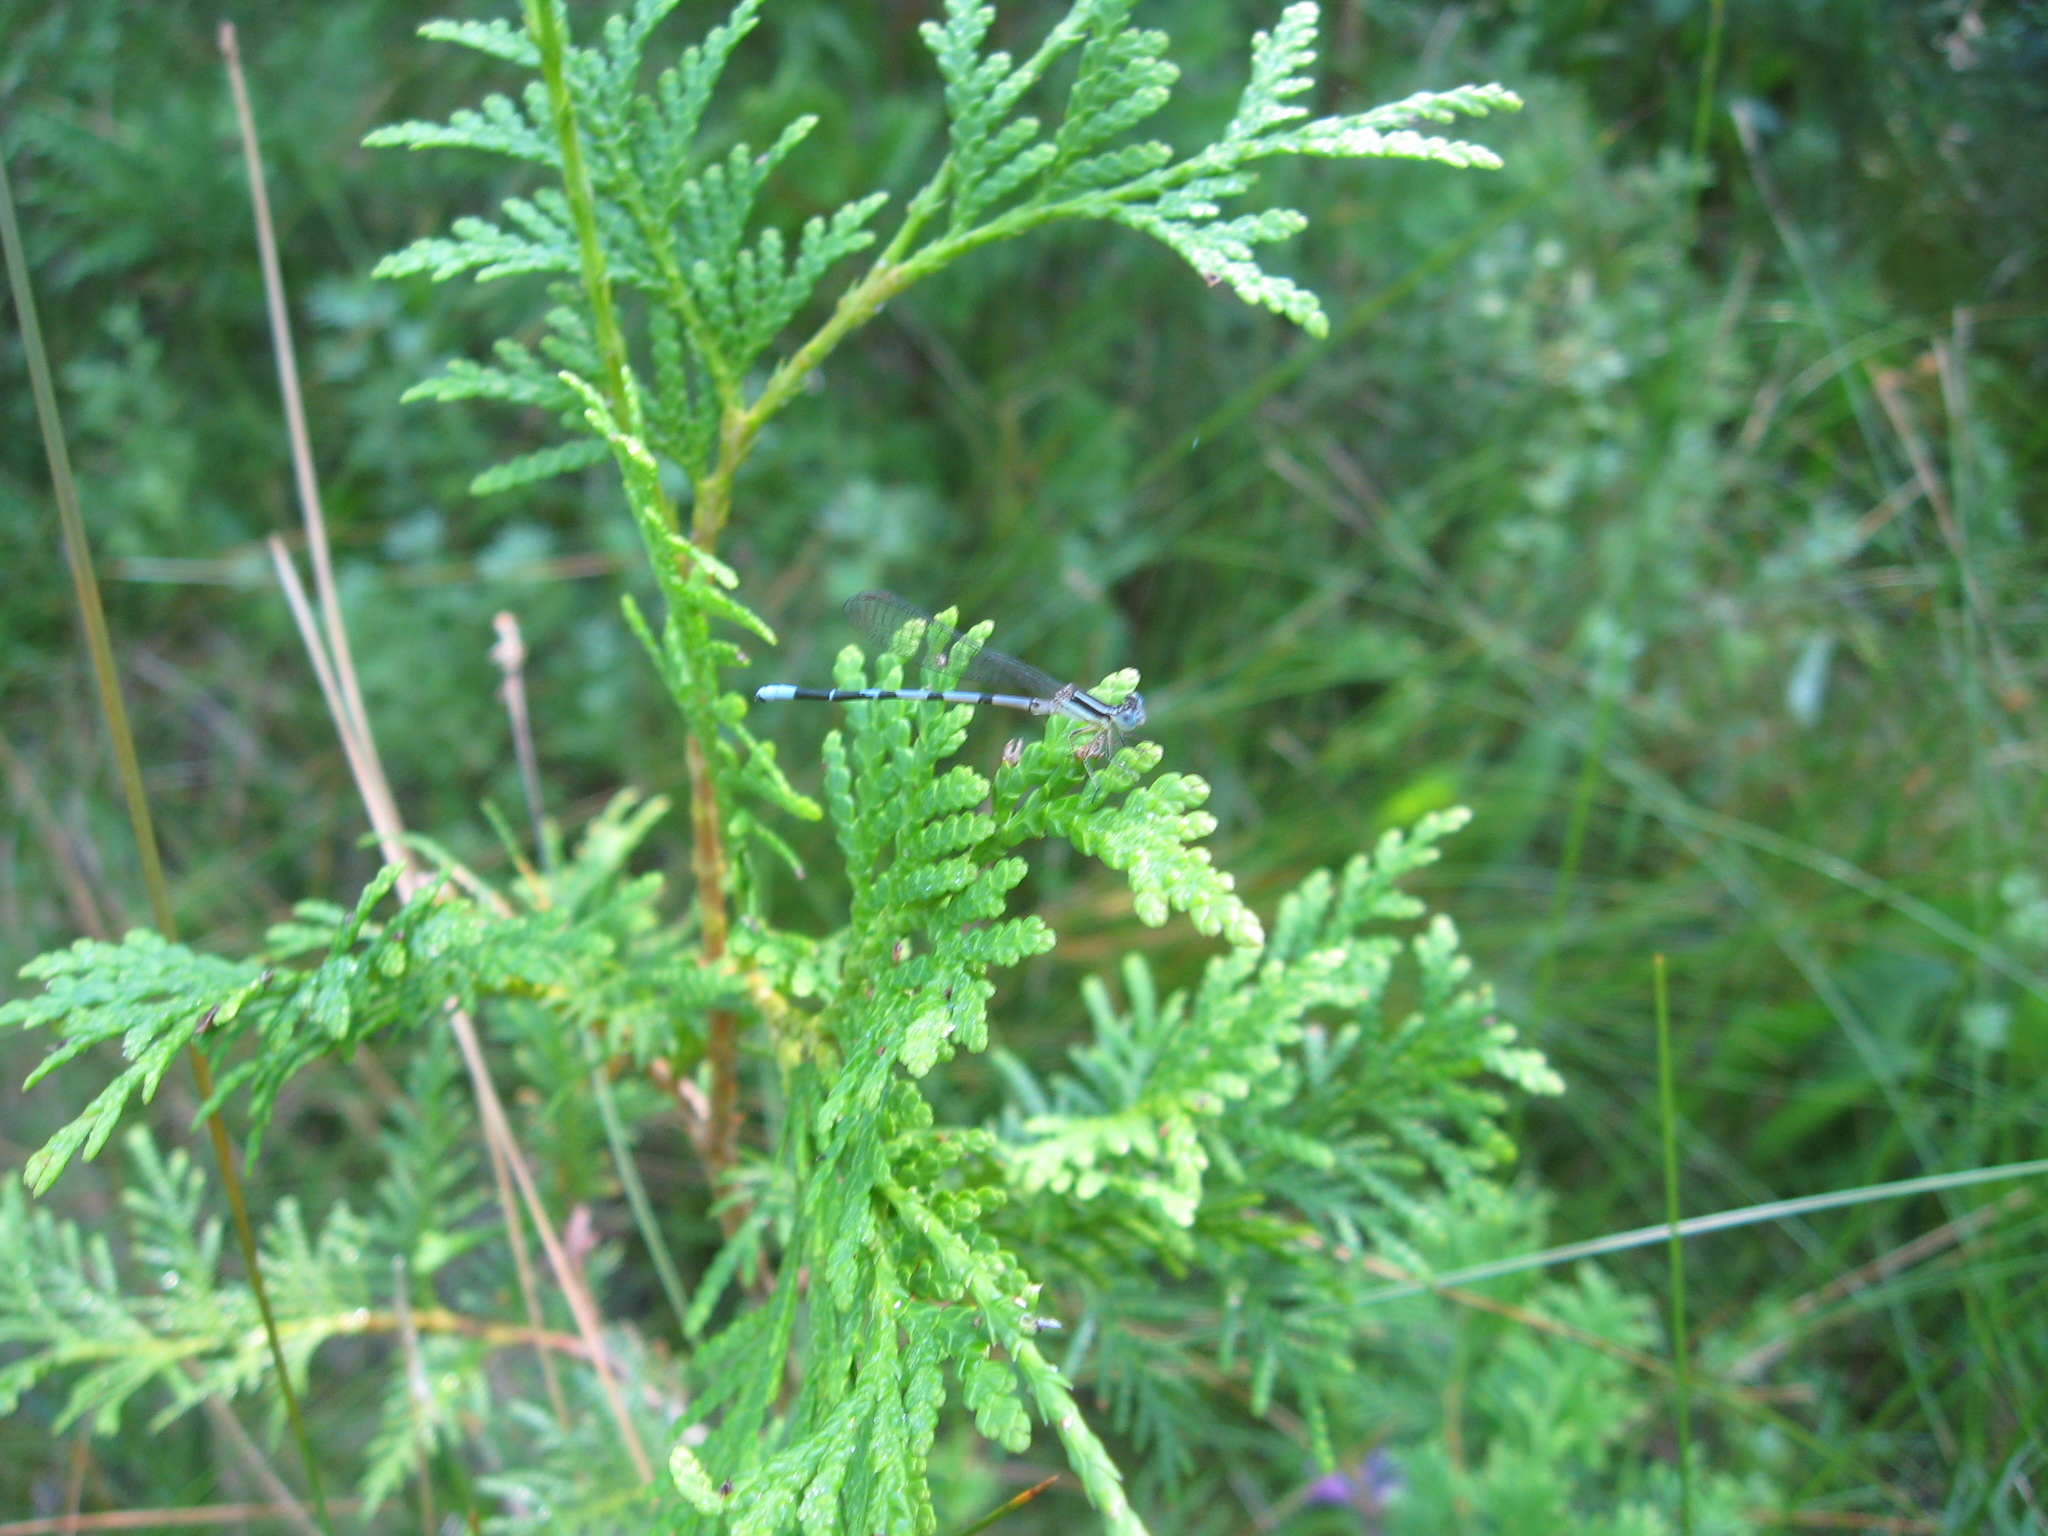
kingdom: Animalia
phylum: Arthropoda
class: Insecta
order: Odonata
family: Coenagrionidae
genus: Argia
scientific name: Argia bipunctulata
